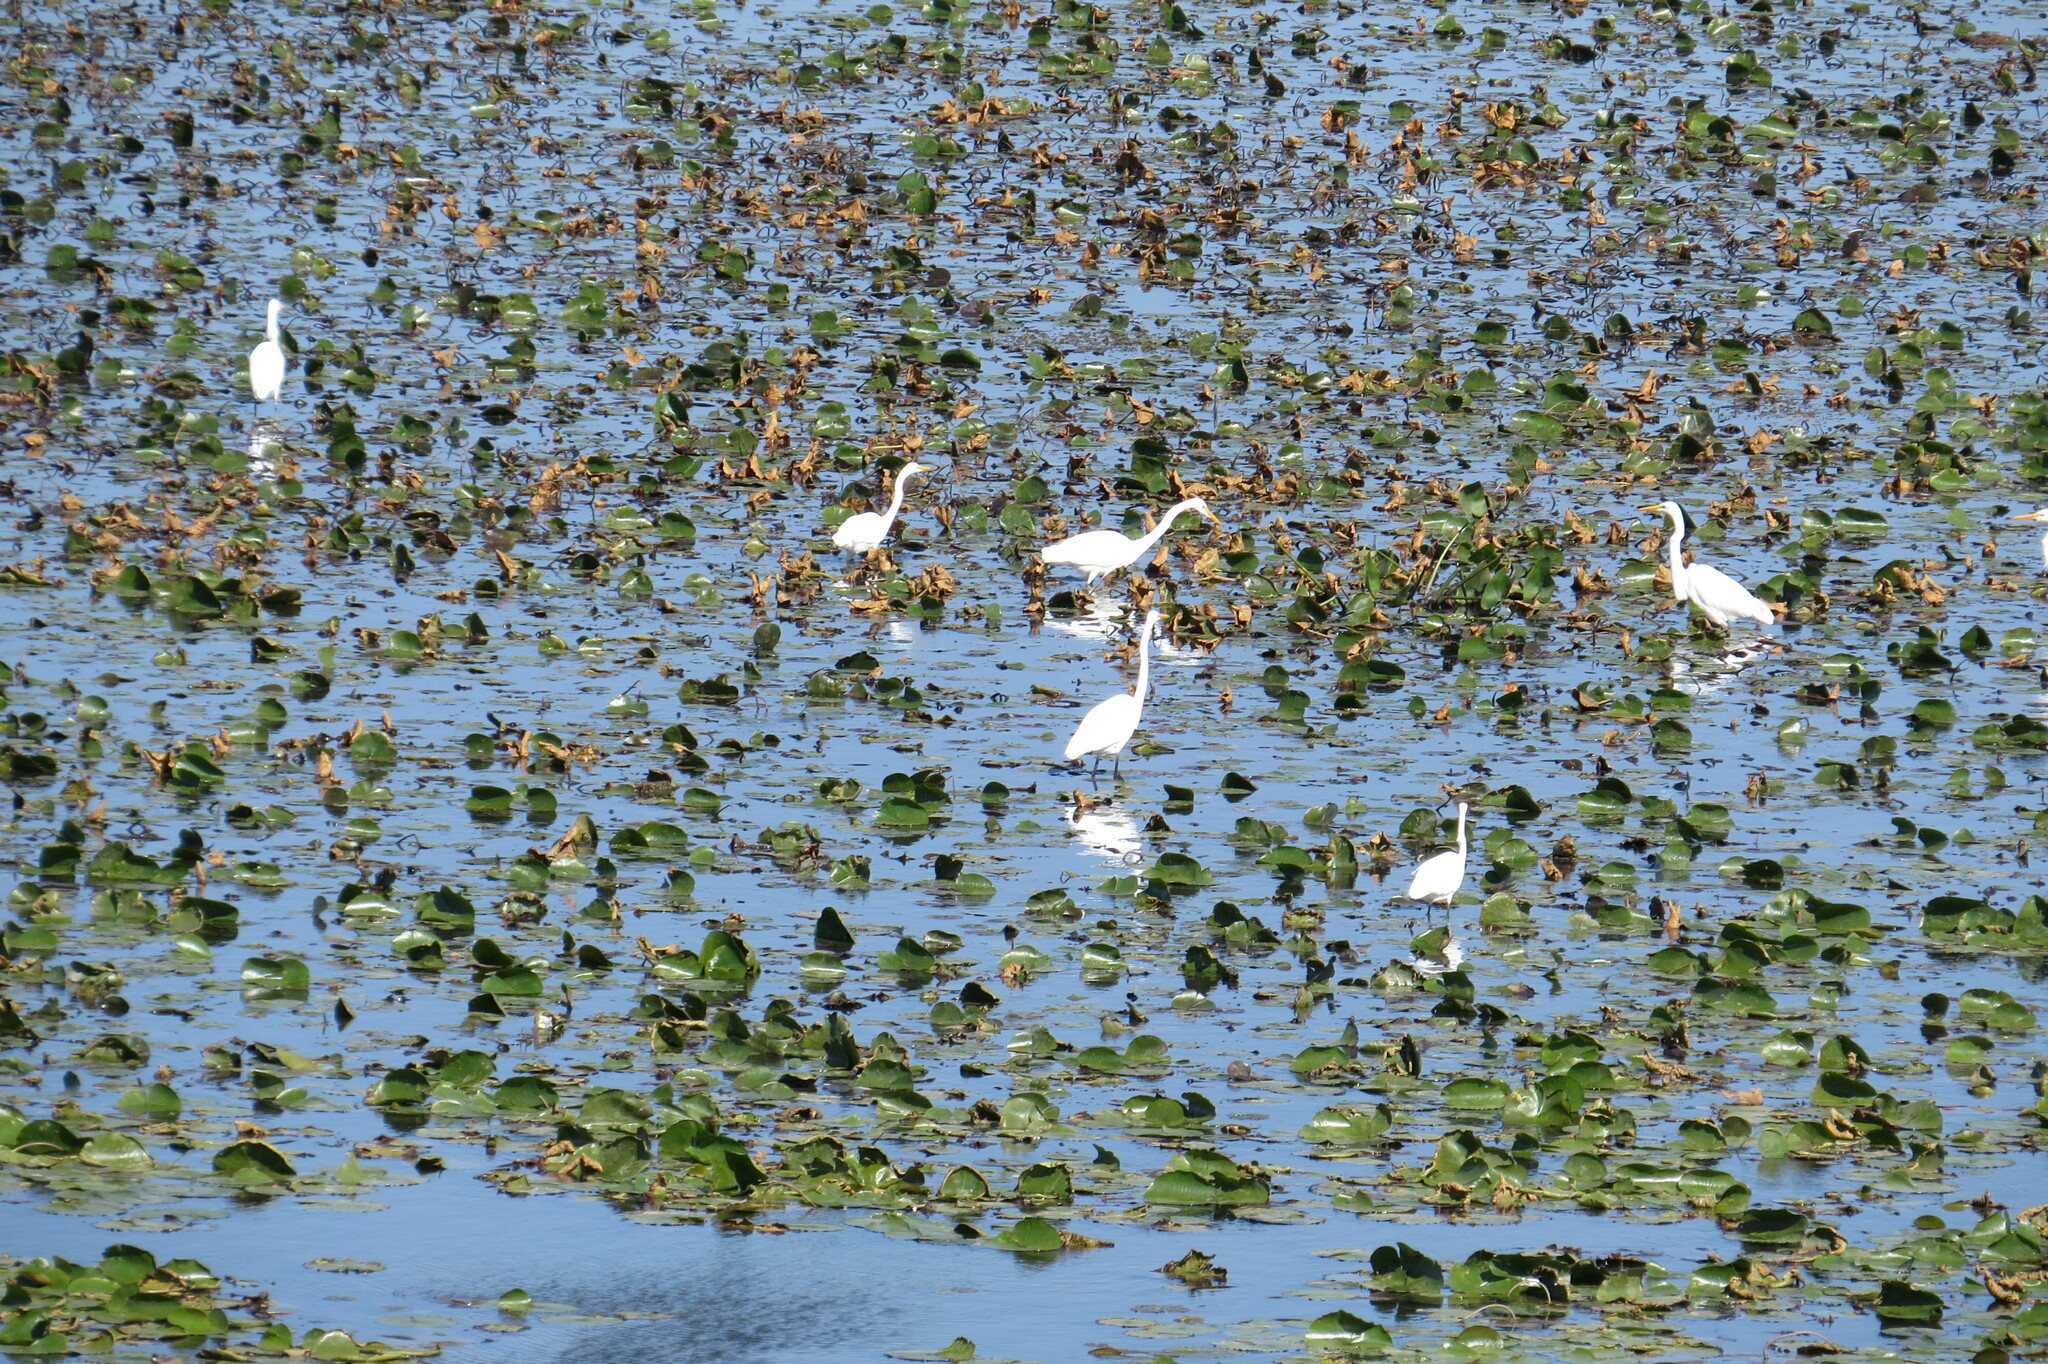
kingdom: Animalia
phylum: Chordata
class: Aves
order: Pelecaniformes
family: Ardeidae
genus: Ardea
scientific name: Ardea alba
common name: Great egret
